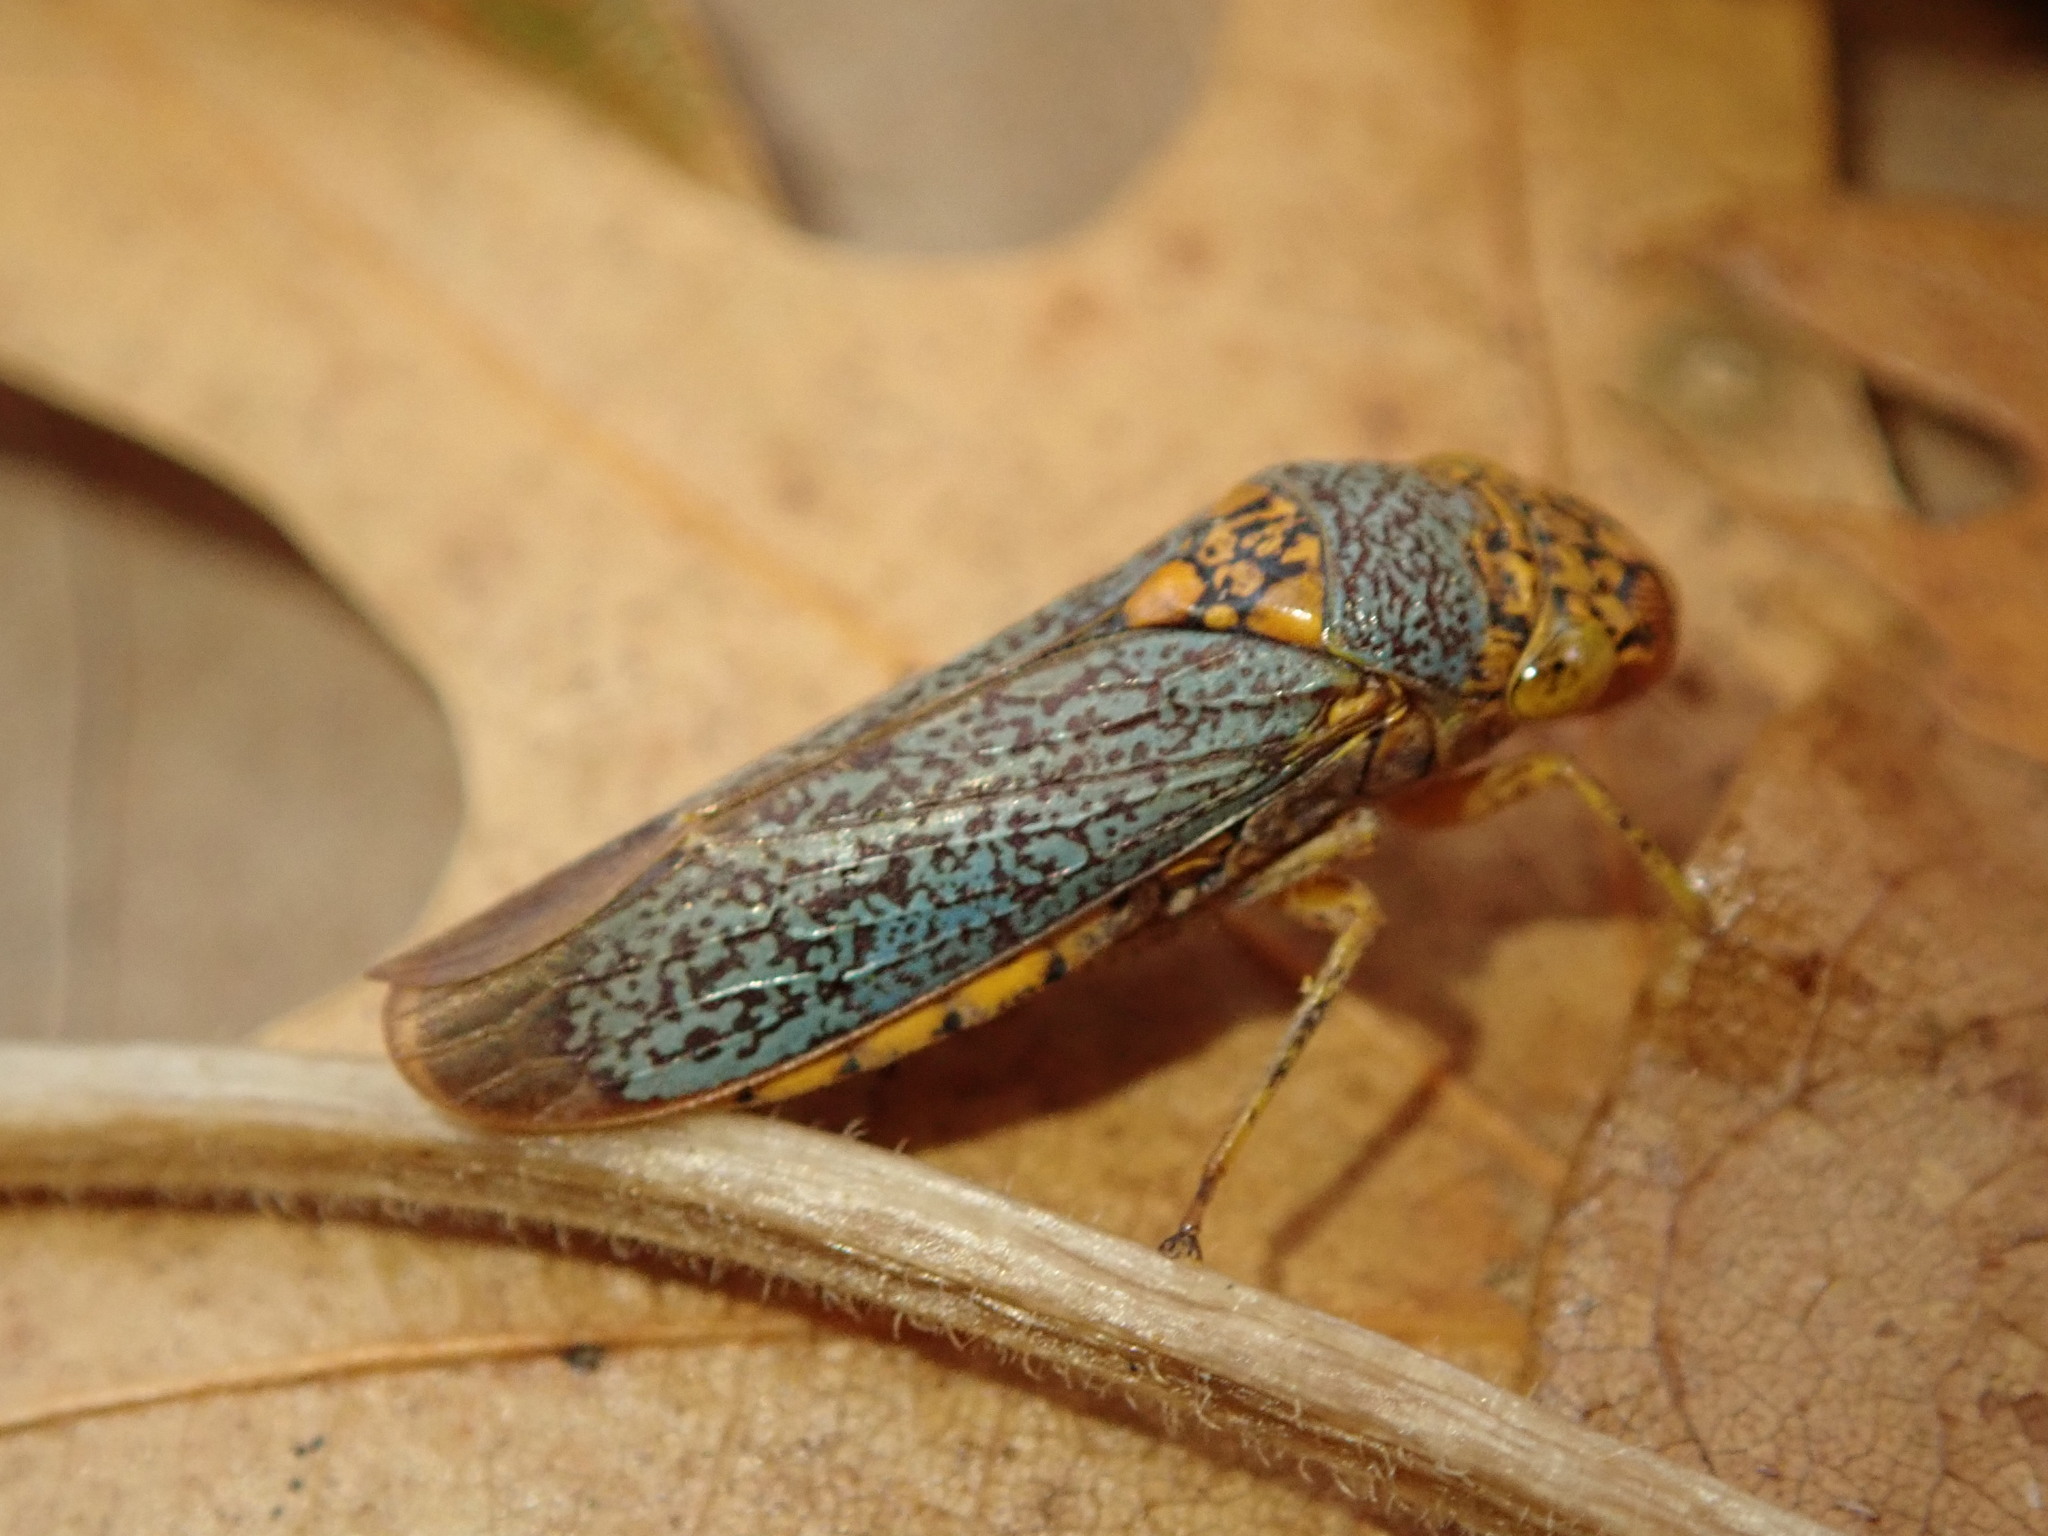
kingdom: Animalia
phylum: Arthropoda
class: Insecta
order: Hemiptera
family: Cicadellidae
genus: Oncometopia
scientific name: Oncometopia orbona
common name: Broad-headed sharpshooter
